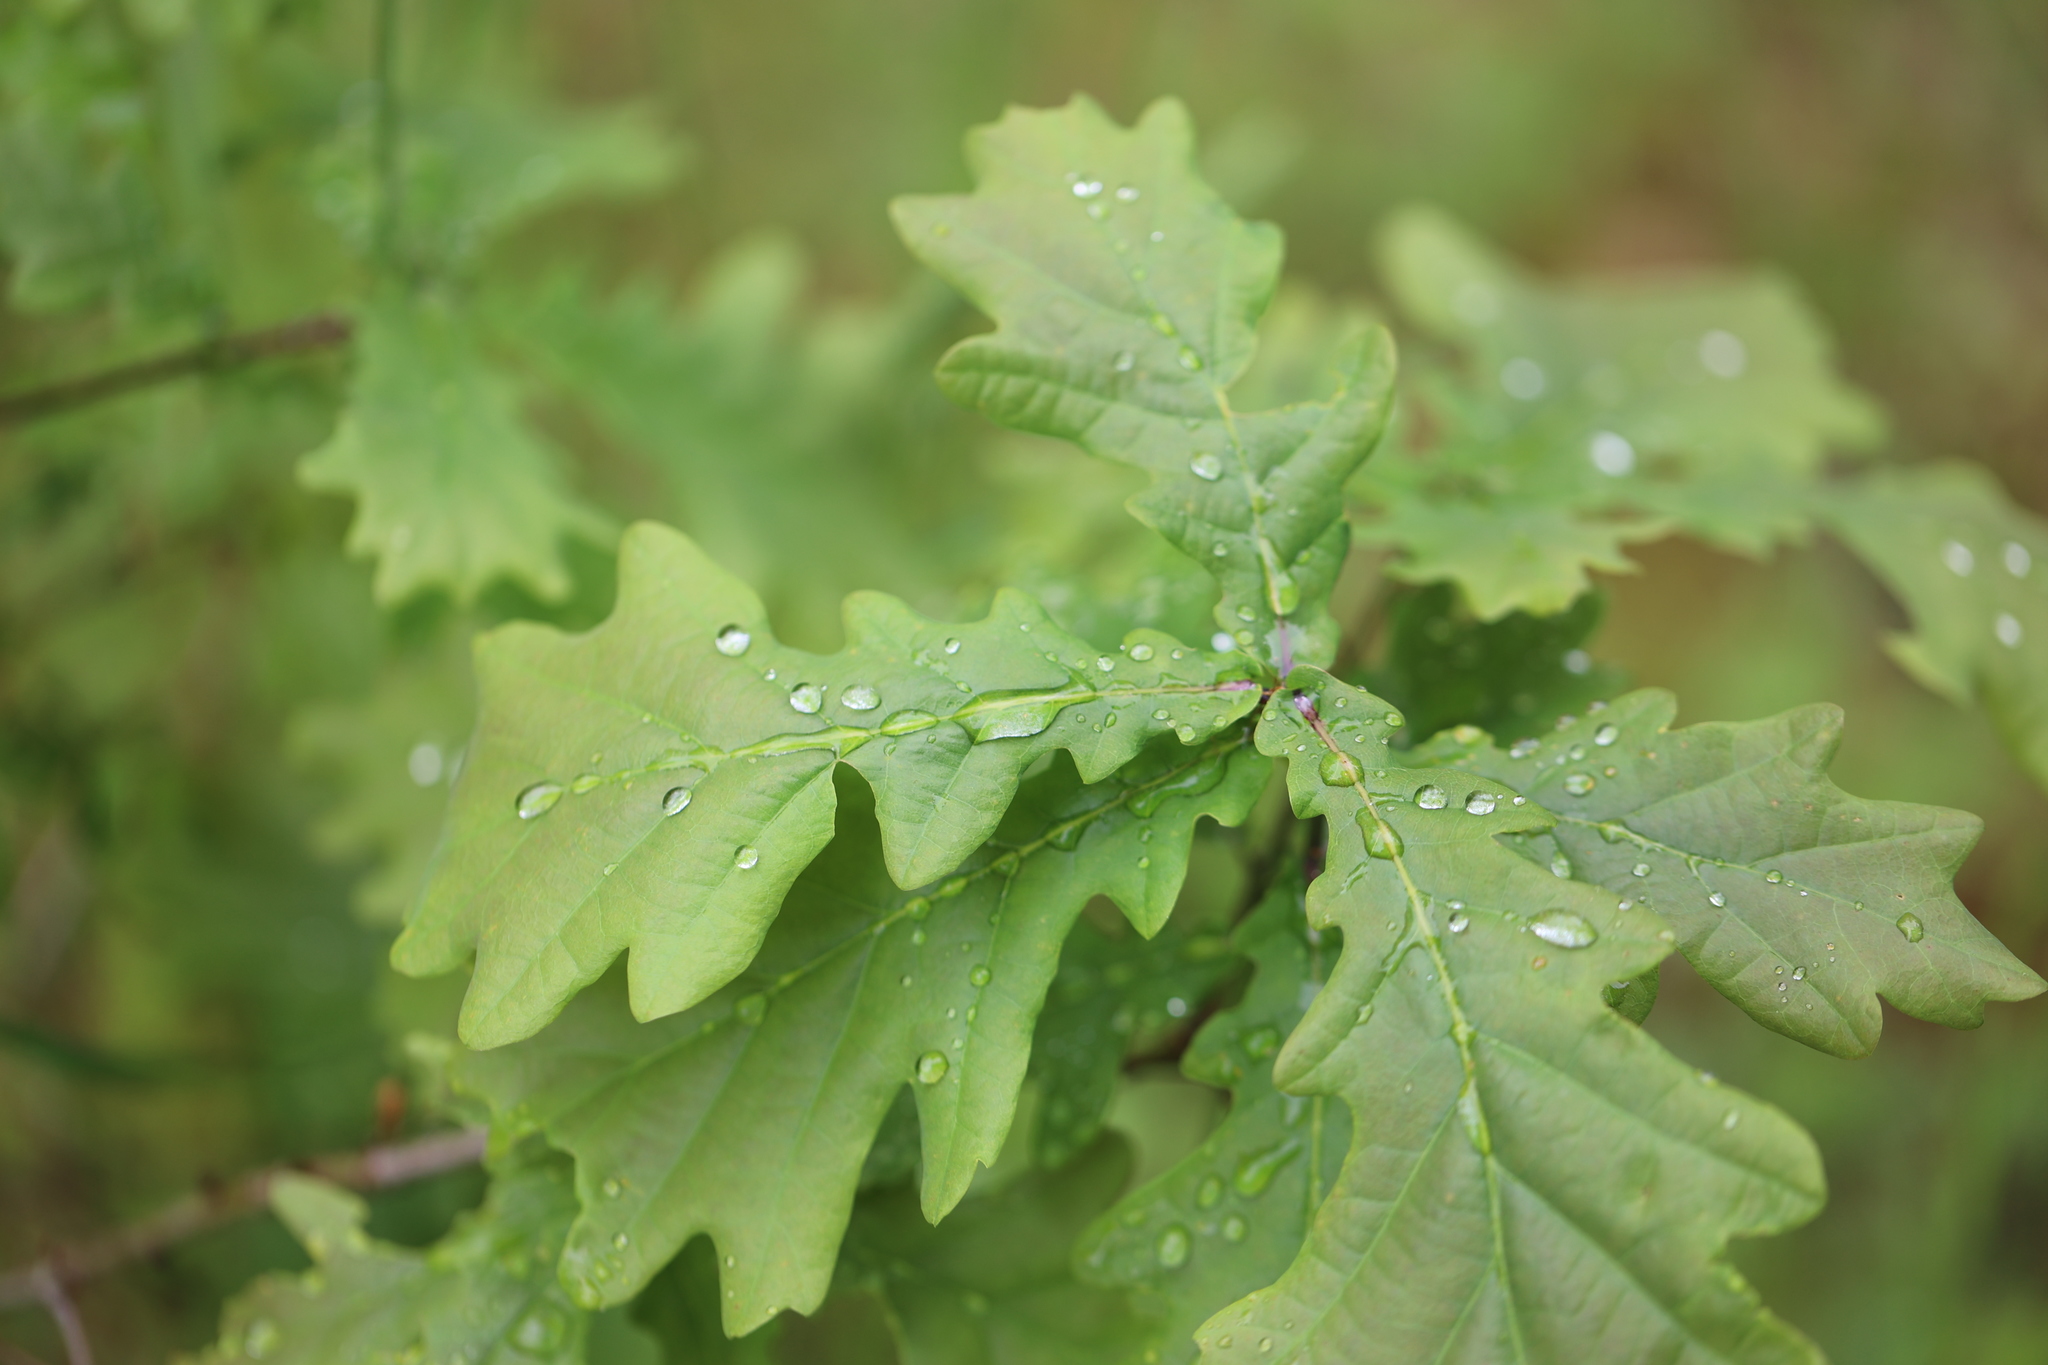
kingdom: Plantae
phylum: Tracheophyta
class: Magnoliopsida
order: Fagales
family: Fagaceae
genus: Quercus
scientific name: Quercus robur
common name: Pedunculate oak
